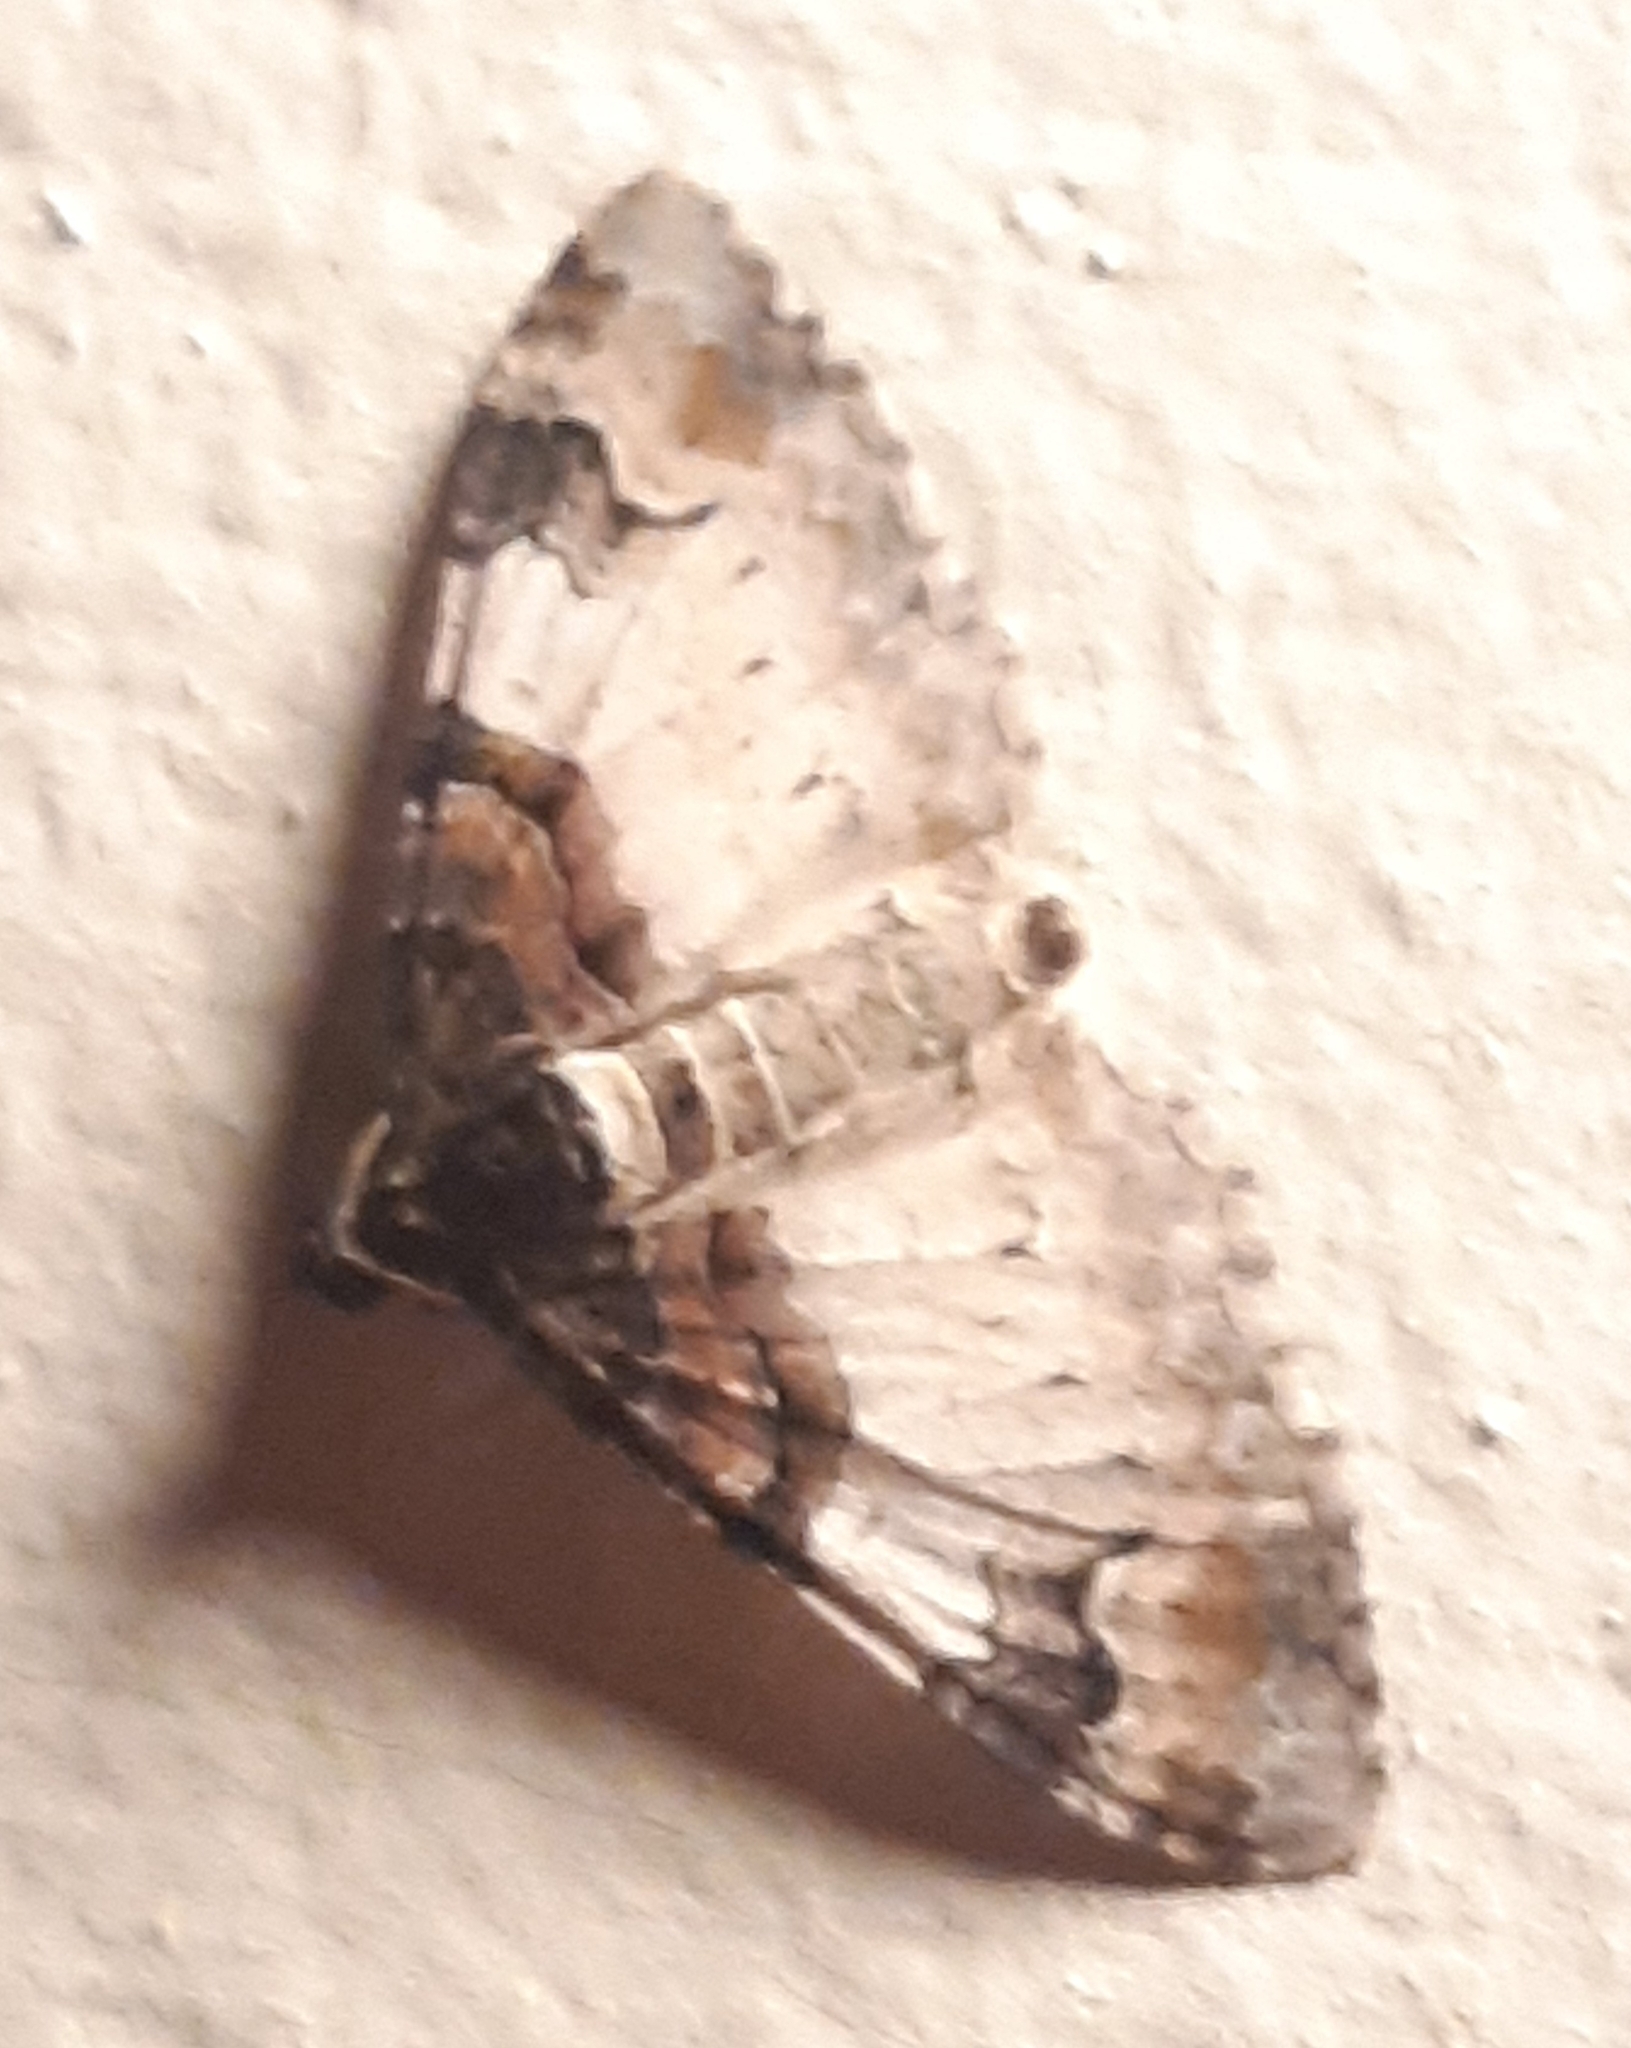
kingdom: Animalia
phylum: Arthropoda
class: Insecta
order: Lepidoptera
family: Geometridae
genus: Catarhoe
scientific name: Catarhoe cuculata
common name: Royal mantle
